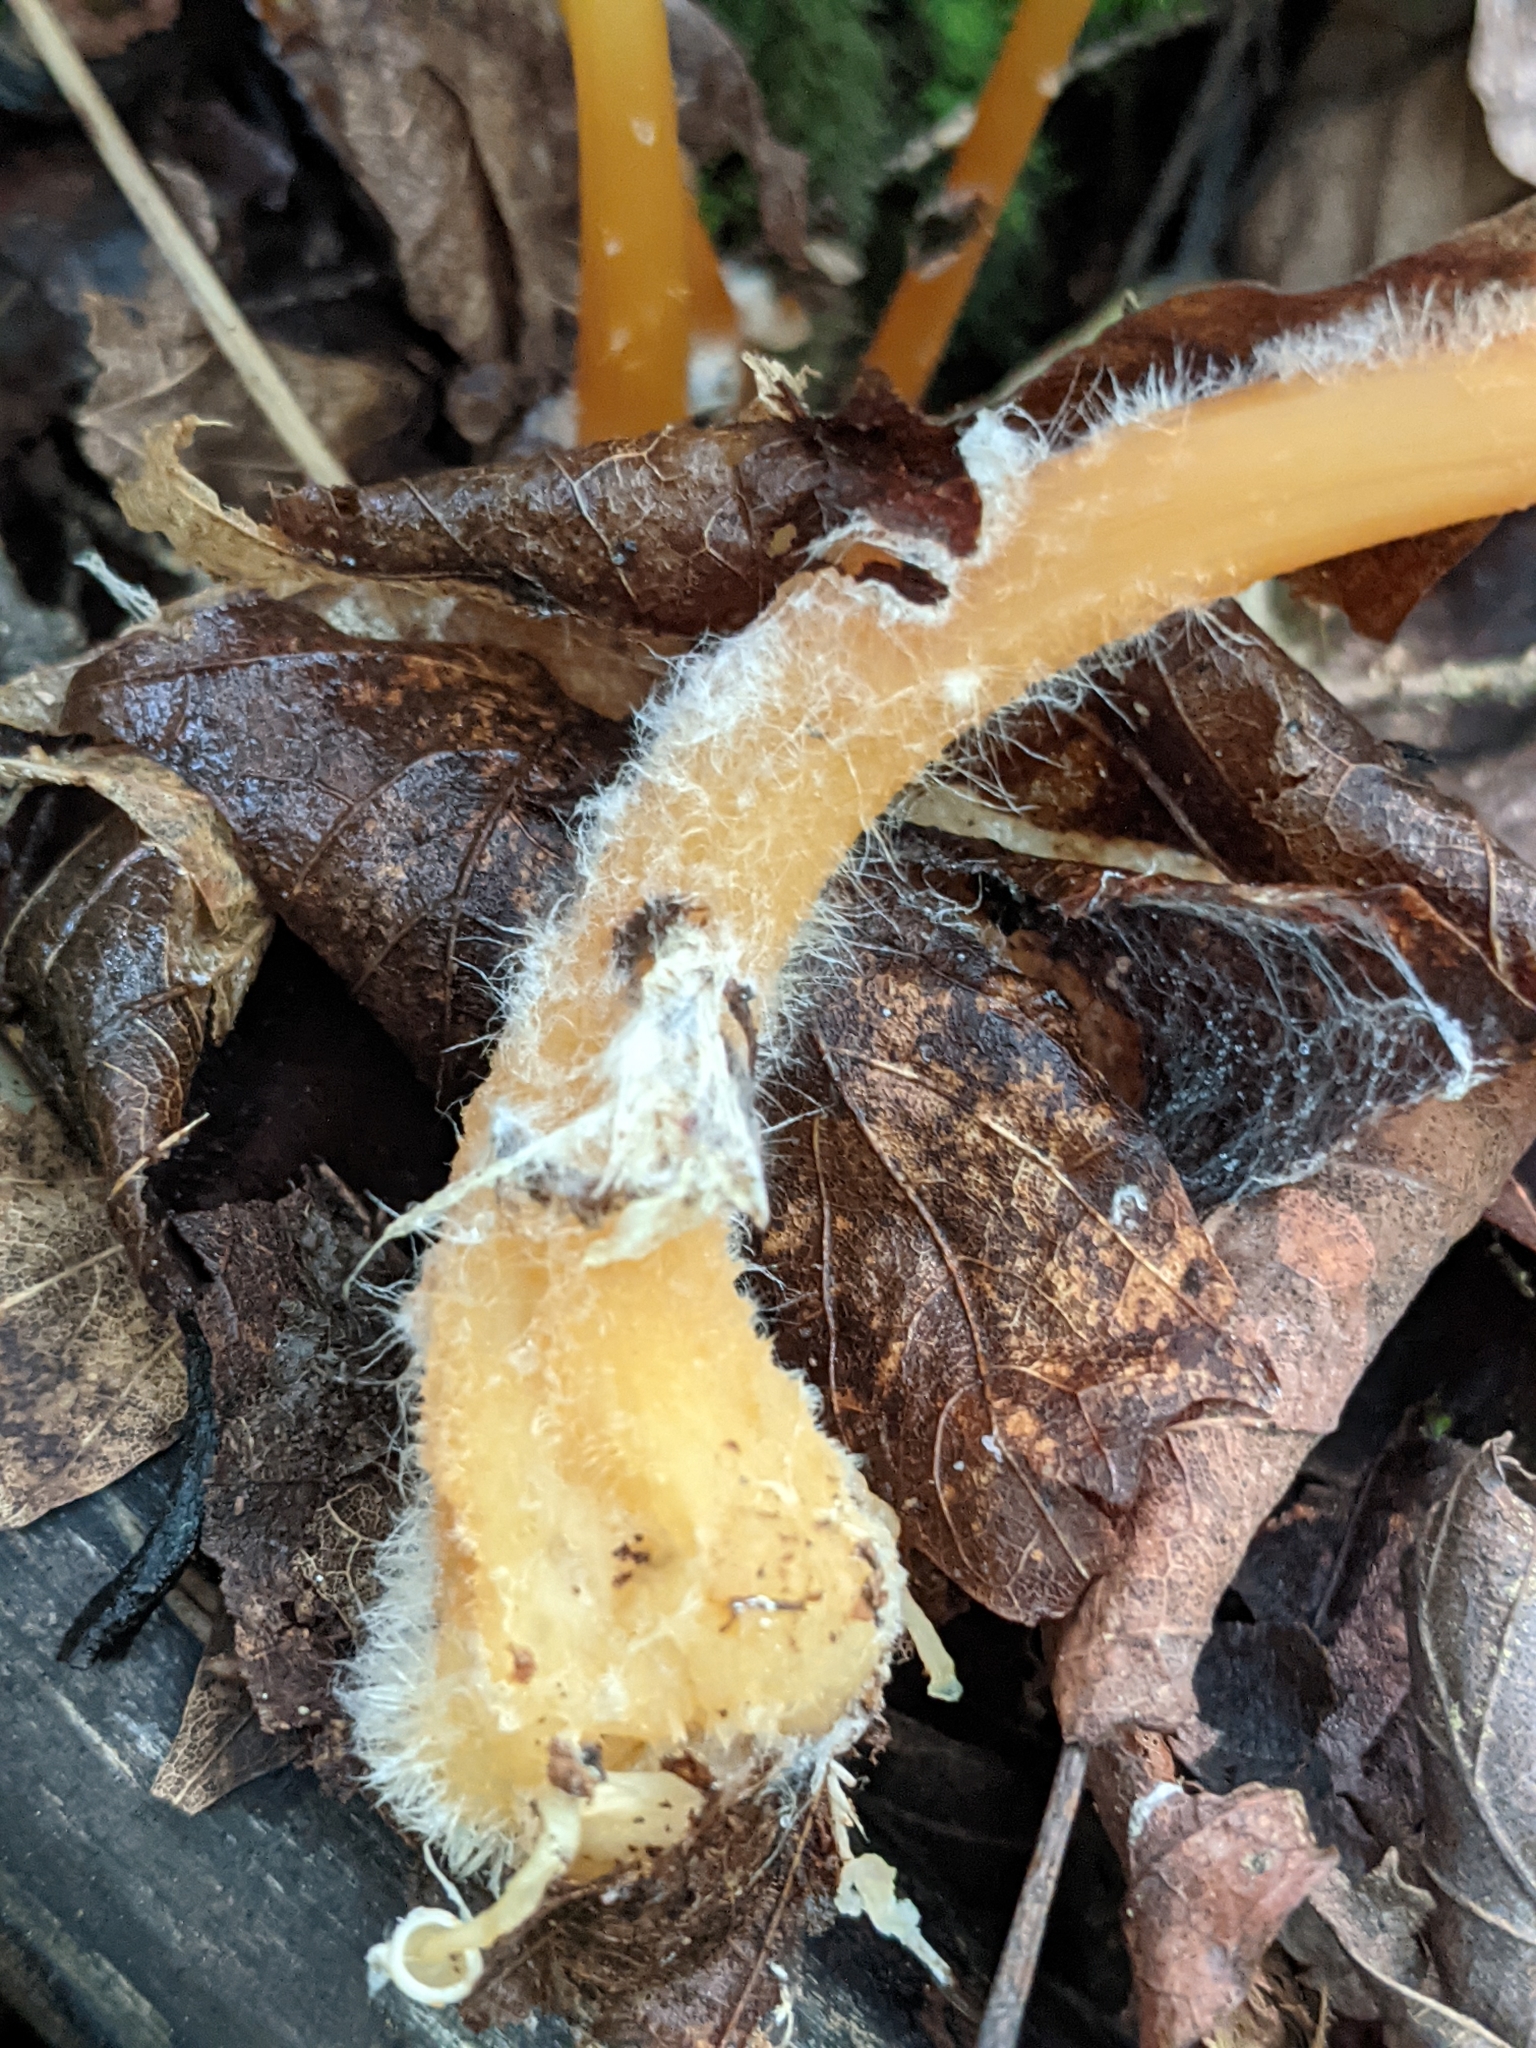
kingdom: Fungi
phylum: Basidiomycota
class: Agaricomycetes
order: Agaricales
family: Omphalotaceae
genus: Gymnopus
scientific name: Gymnopus dryophilus
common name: Penny top
